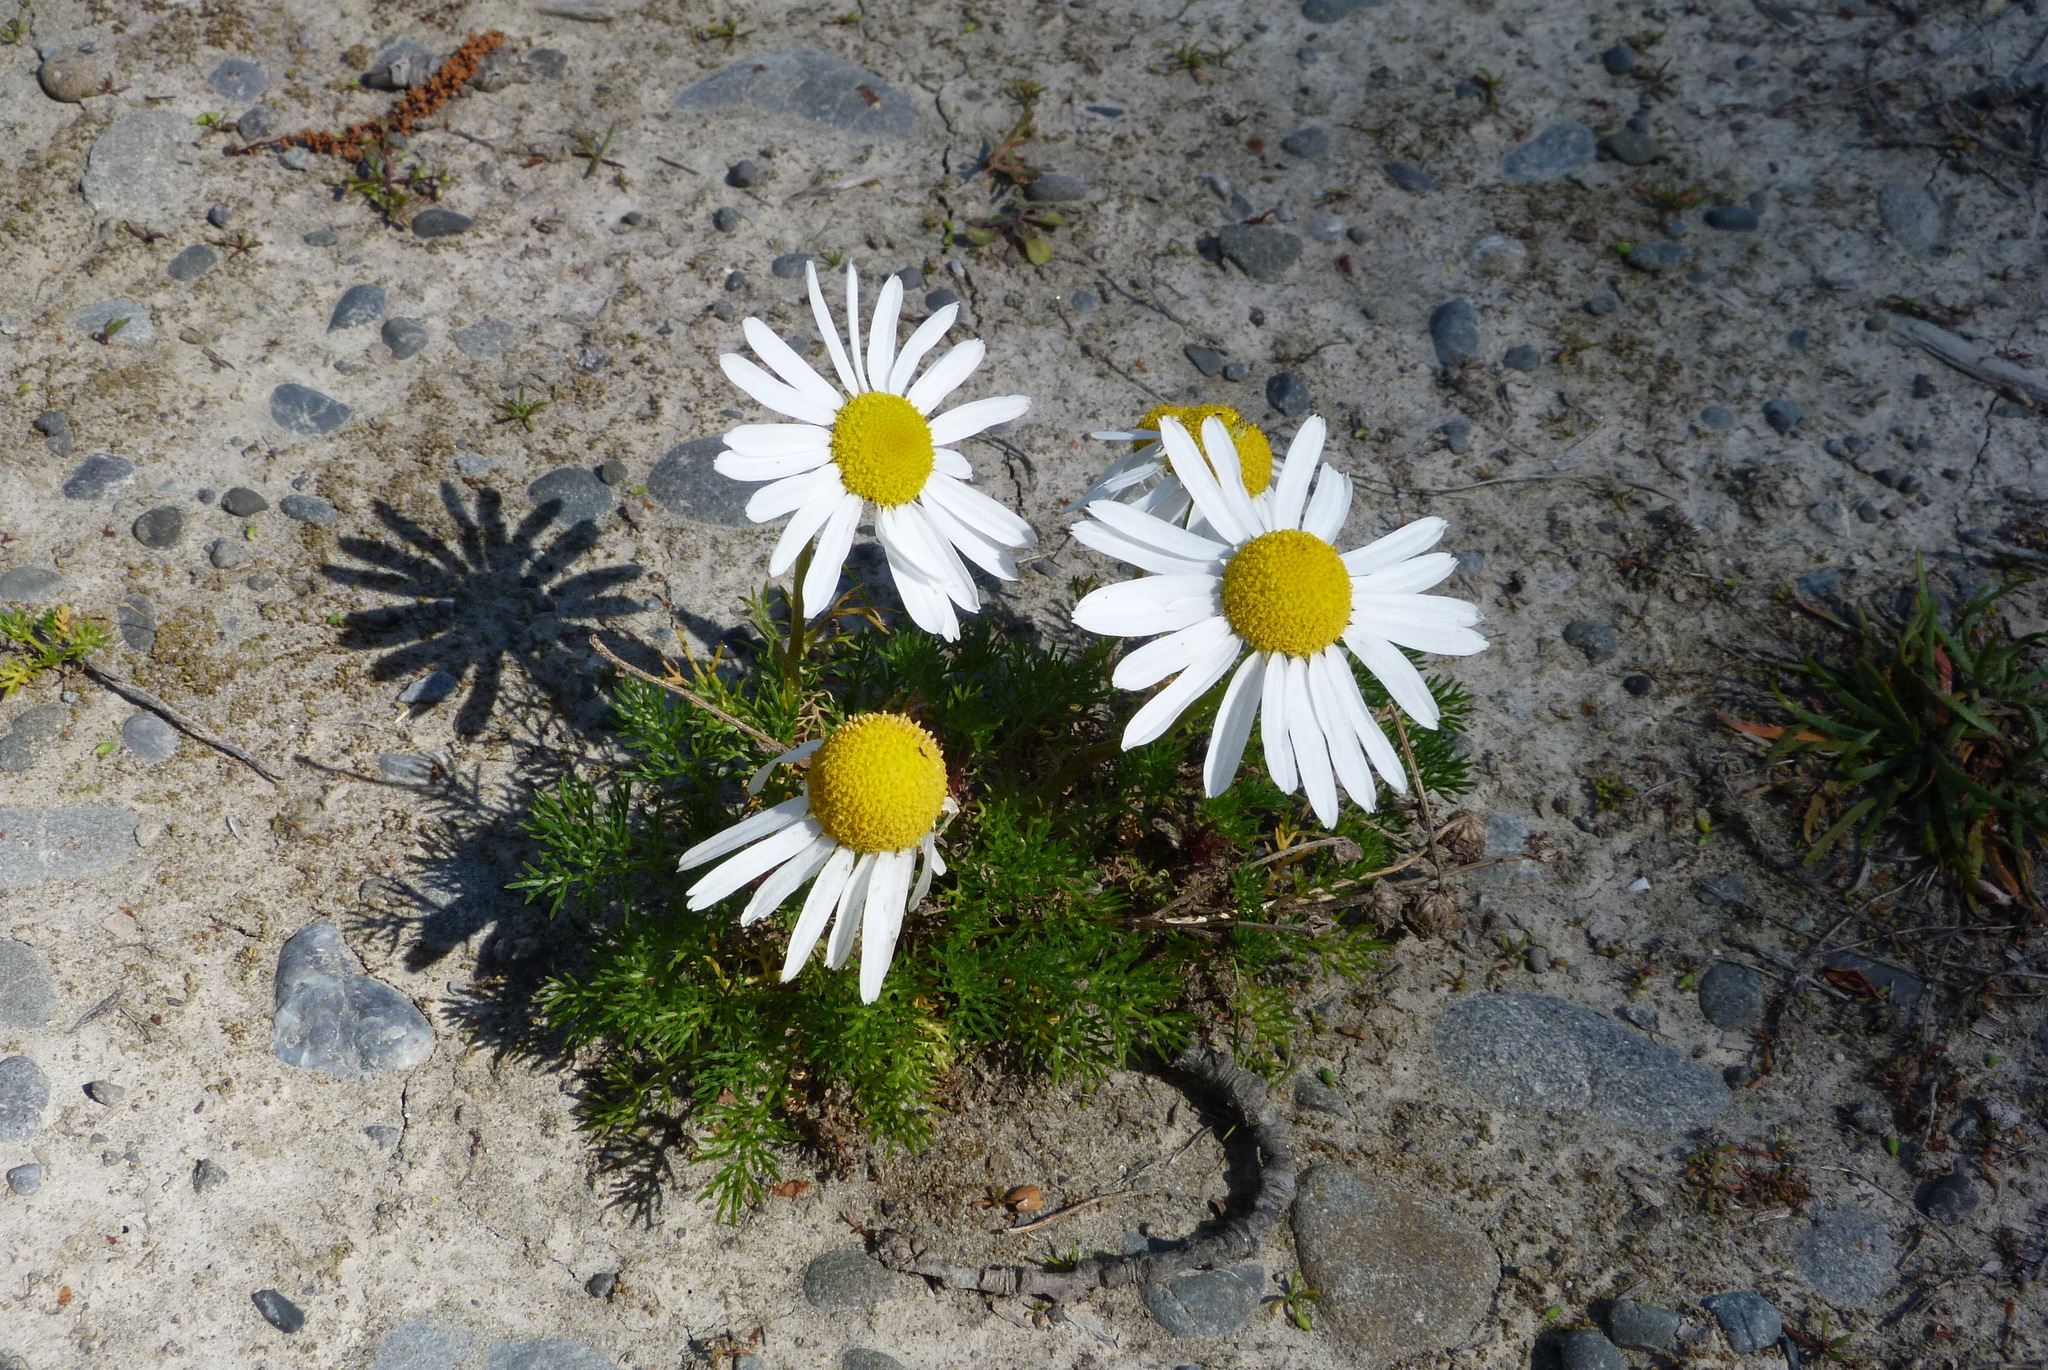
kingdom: Plantae
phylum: Tracheophyta
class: Magnoliopsida
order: Asterales
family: Asteraceae
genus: Tripleurospermum
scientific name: Tripleurospermum inodorum
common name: Scentless mayweed
